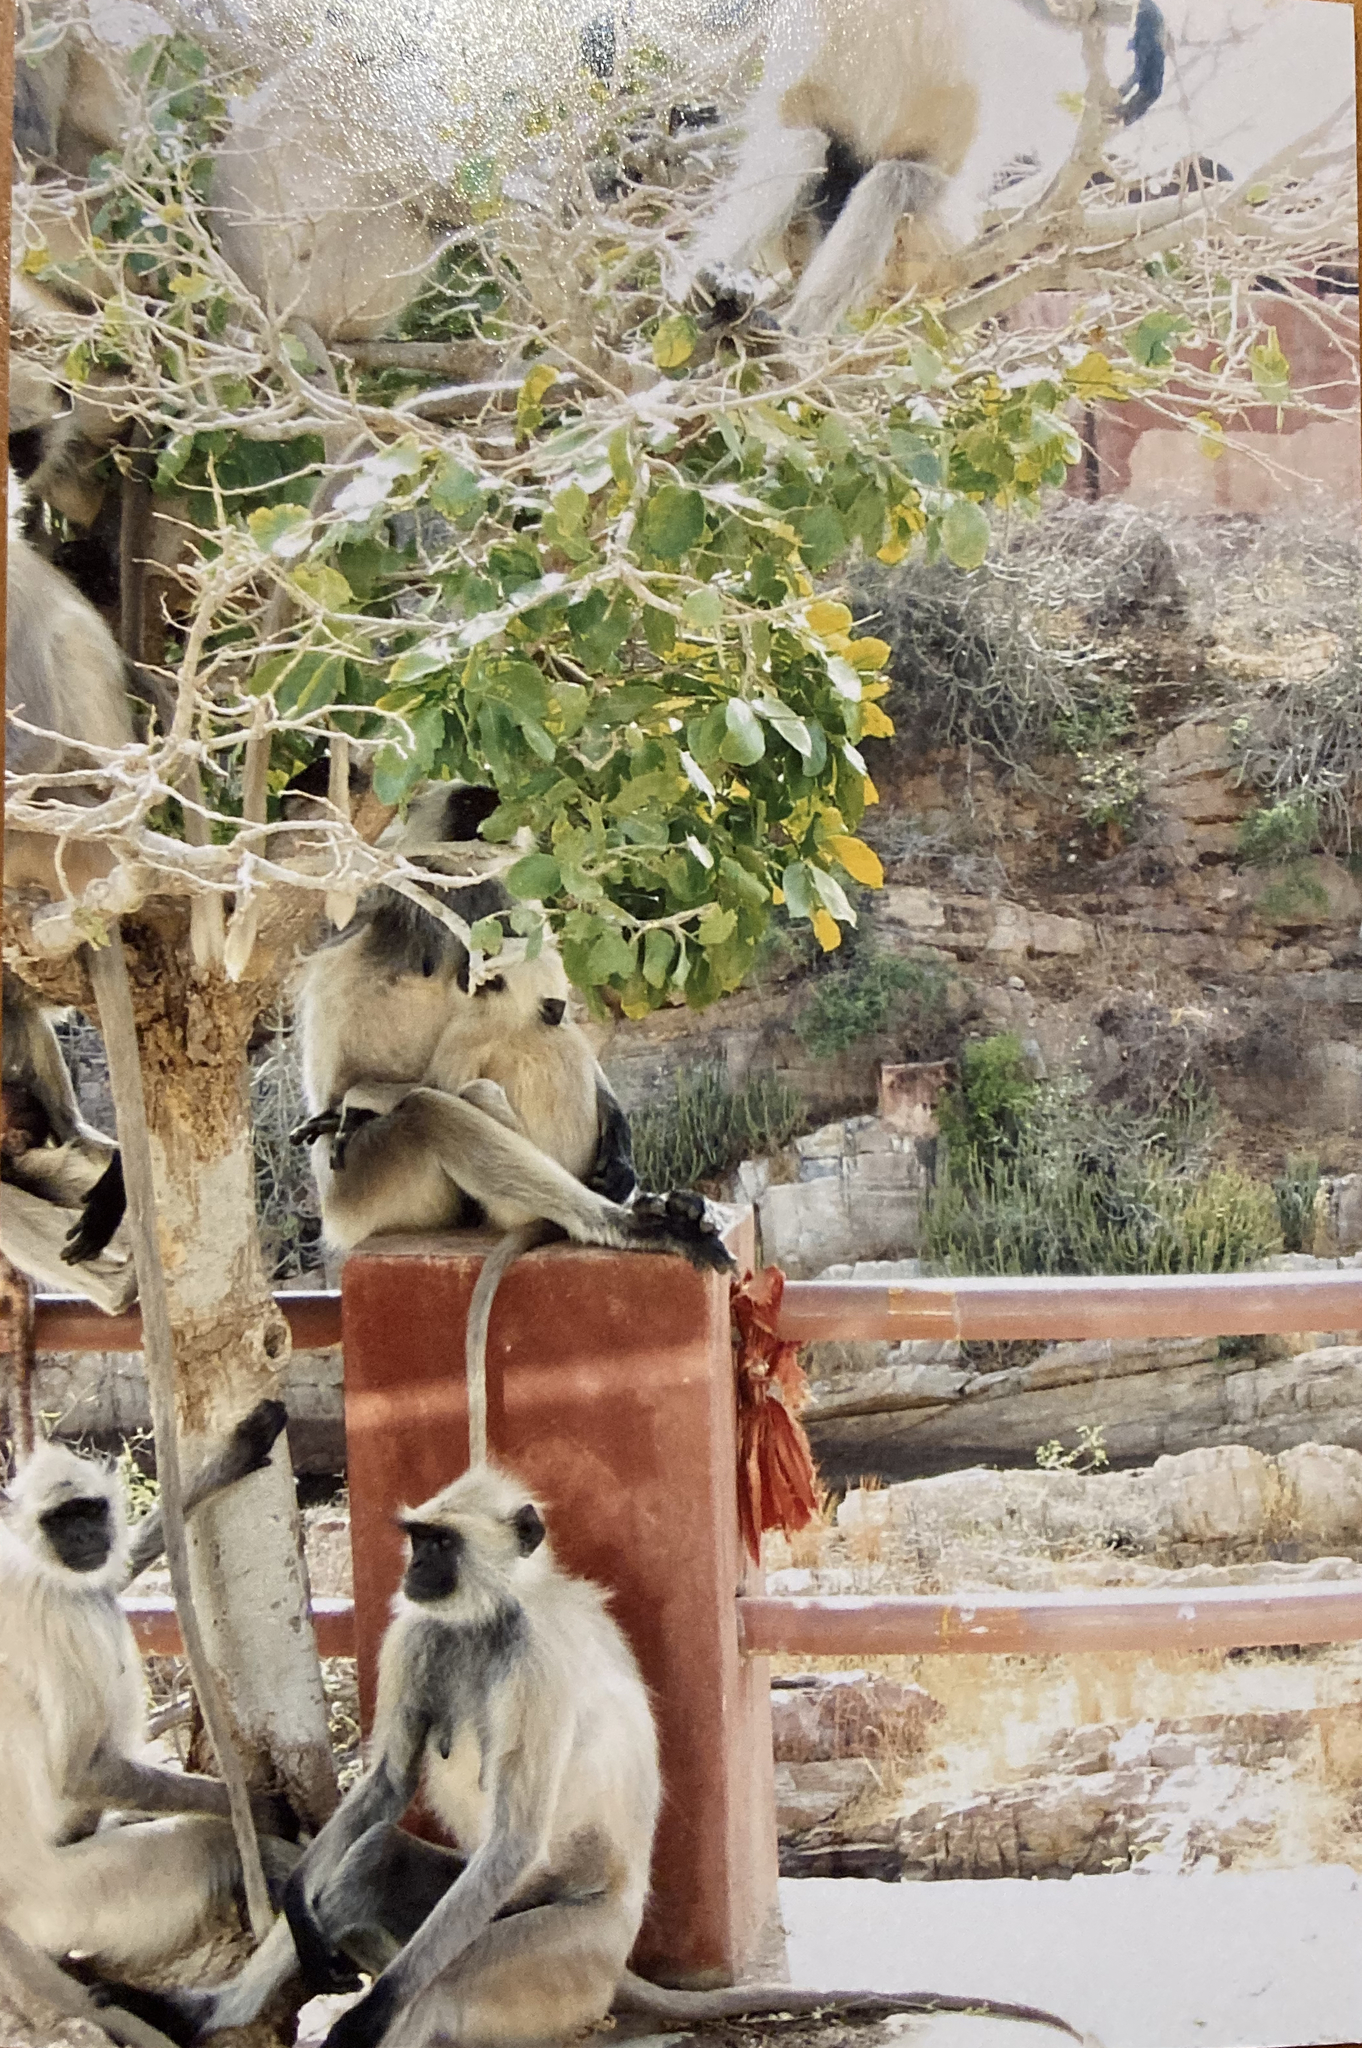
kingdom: Animalia
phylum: Chordata
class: Mammalia
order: Primates
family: Cercopithecidae
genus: Semnopithecus
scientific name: Semnopithecus entellus
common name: Northern plains gray langur
